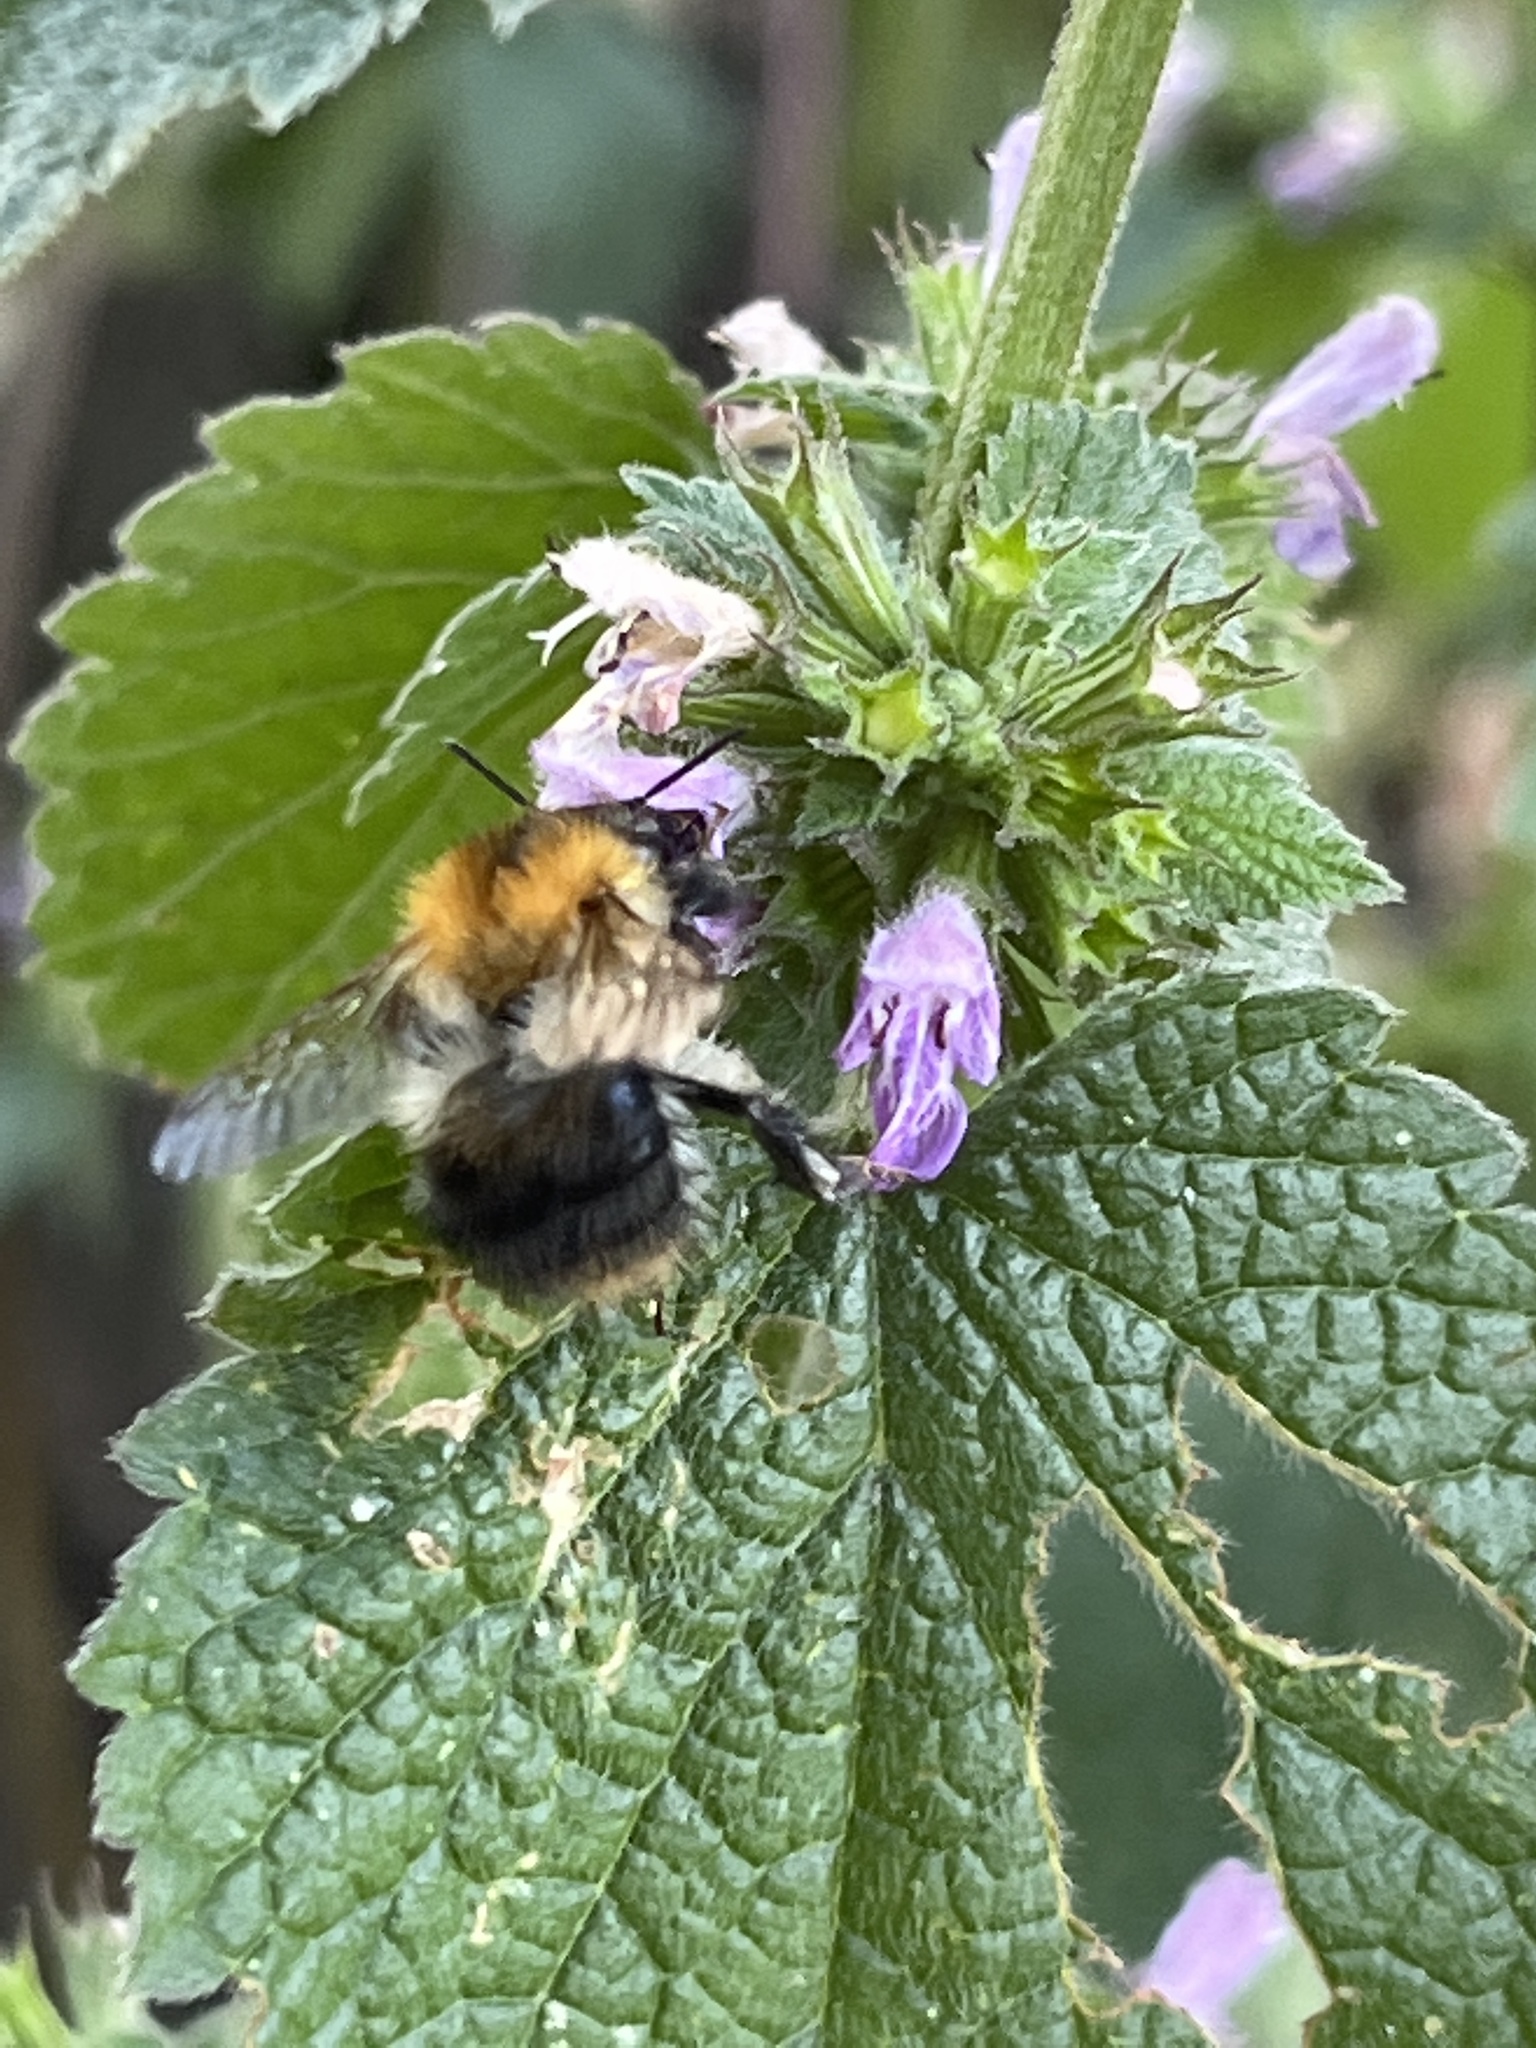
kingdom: Animalia
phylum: Arthropoda
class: Insecta
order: Hymenoptera
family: Apidae
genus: Bombus
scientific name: Bombus pascuorum
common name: Common carder bee
